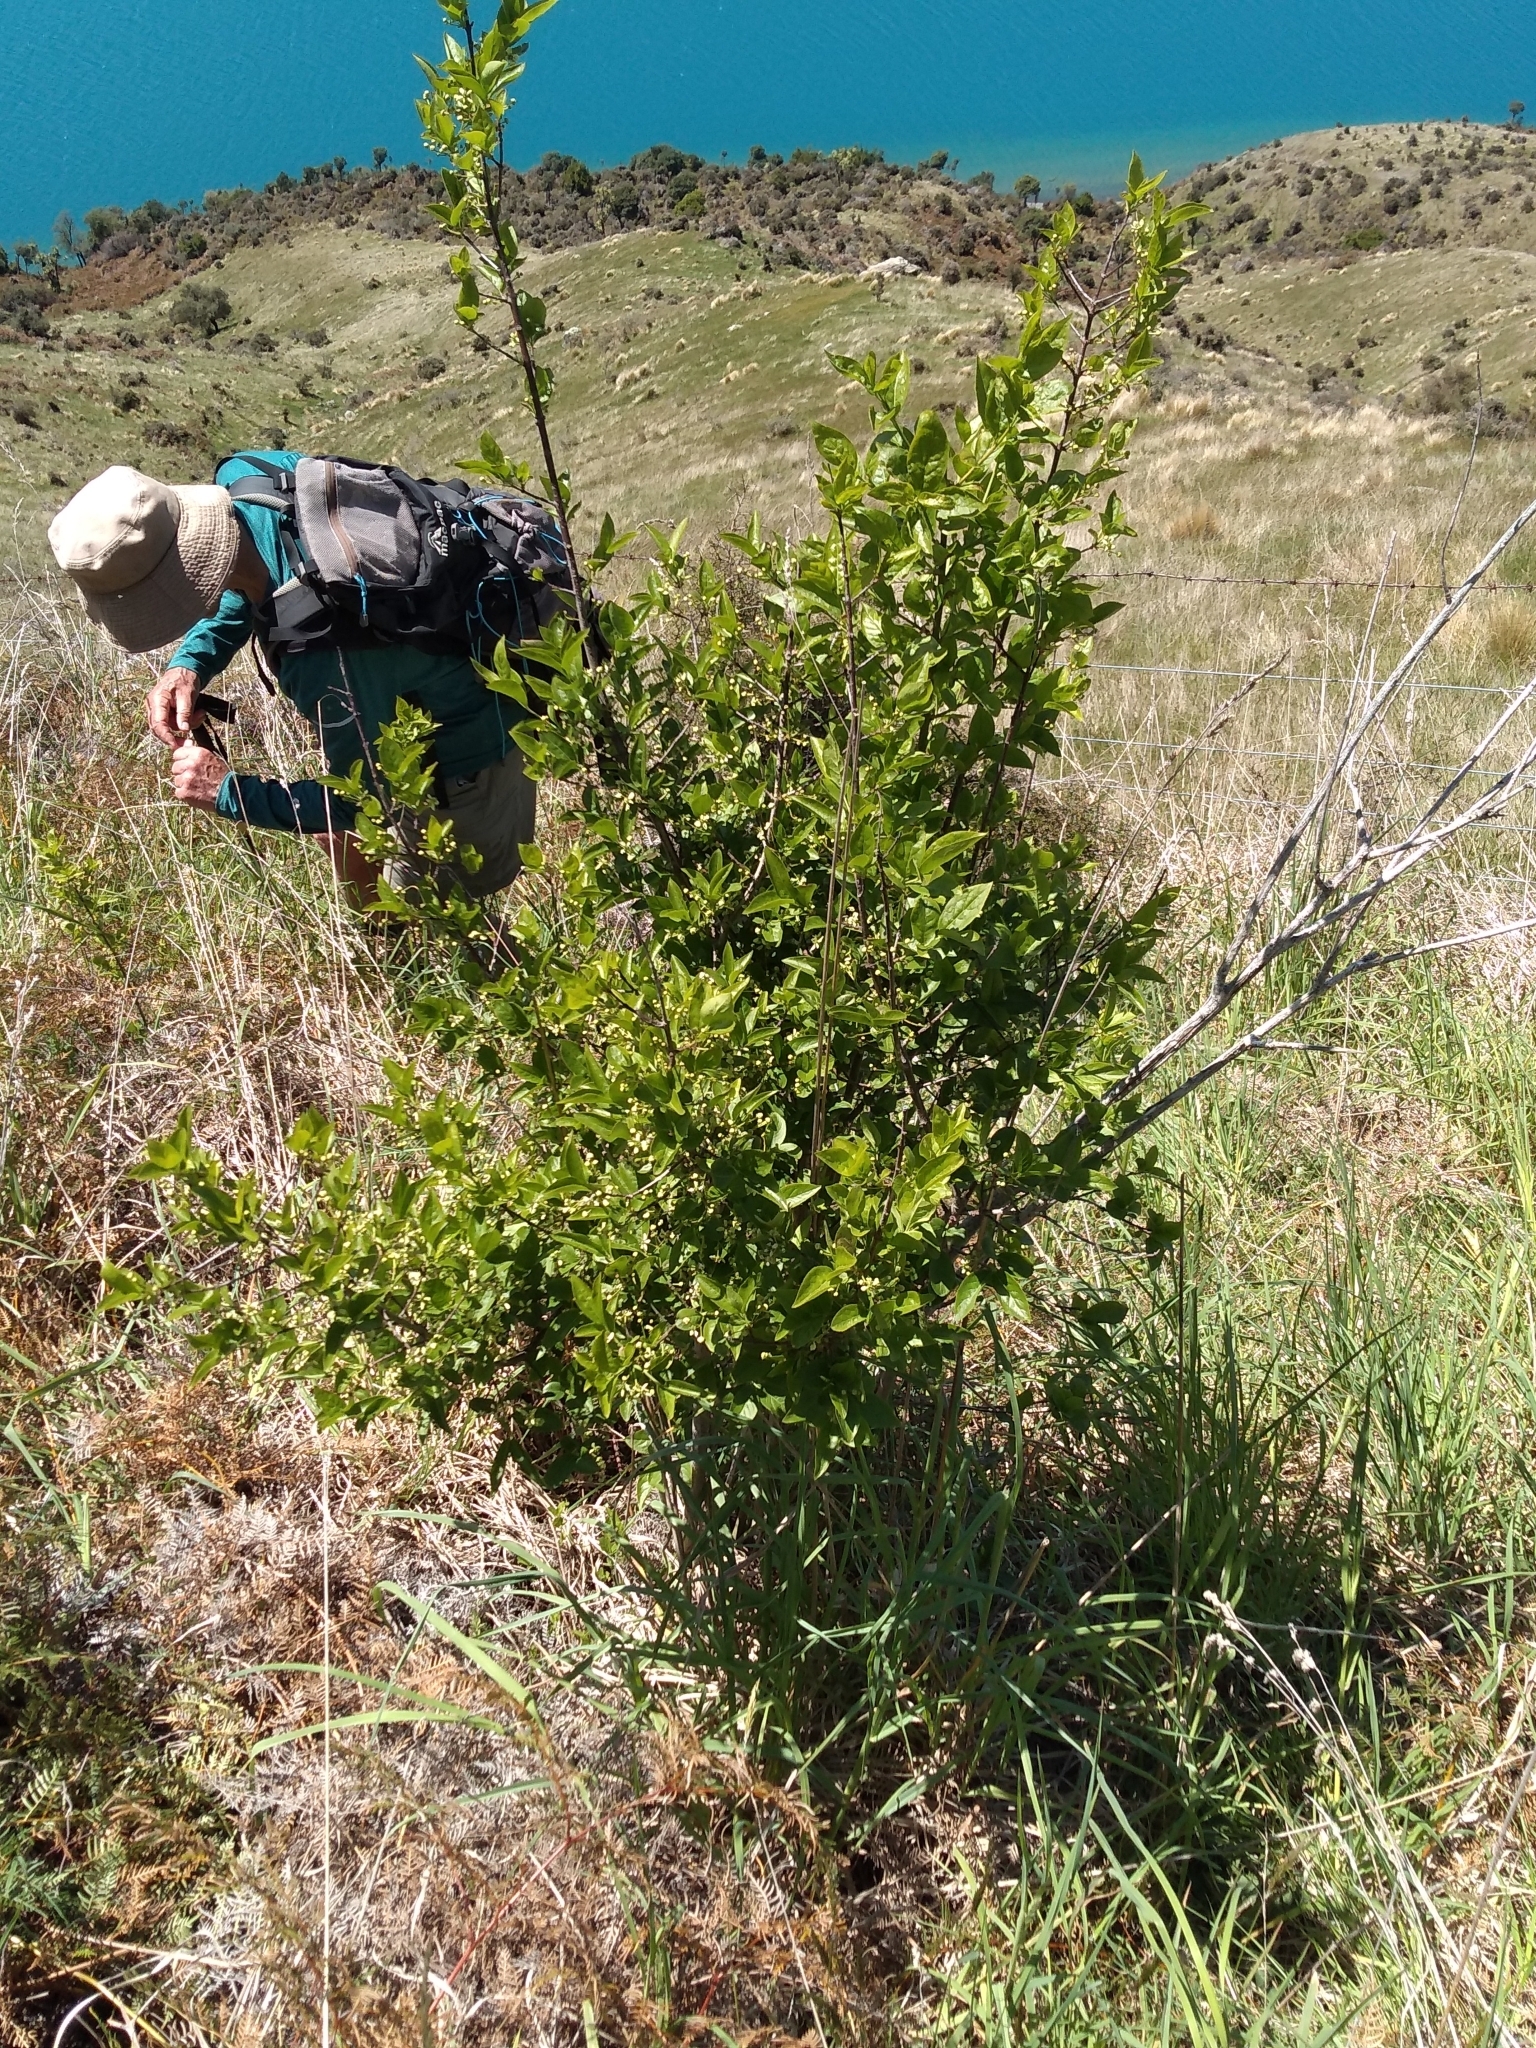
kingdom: Plantae
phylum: Tracheophyta
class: Magnoliopsida
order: Celastrales
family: Celastraceae
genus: Euonymus
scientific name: Euonymus europaeus
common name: Spindle
